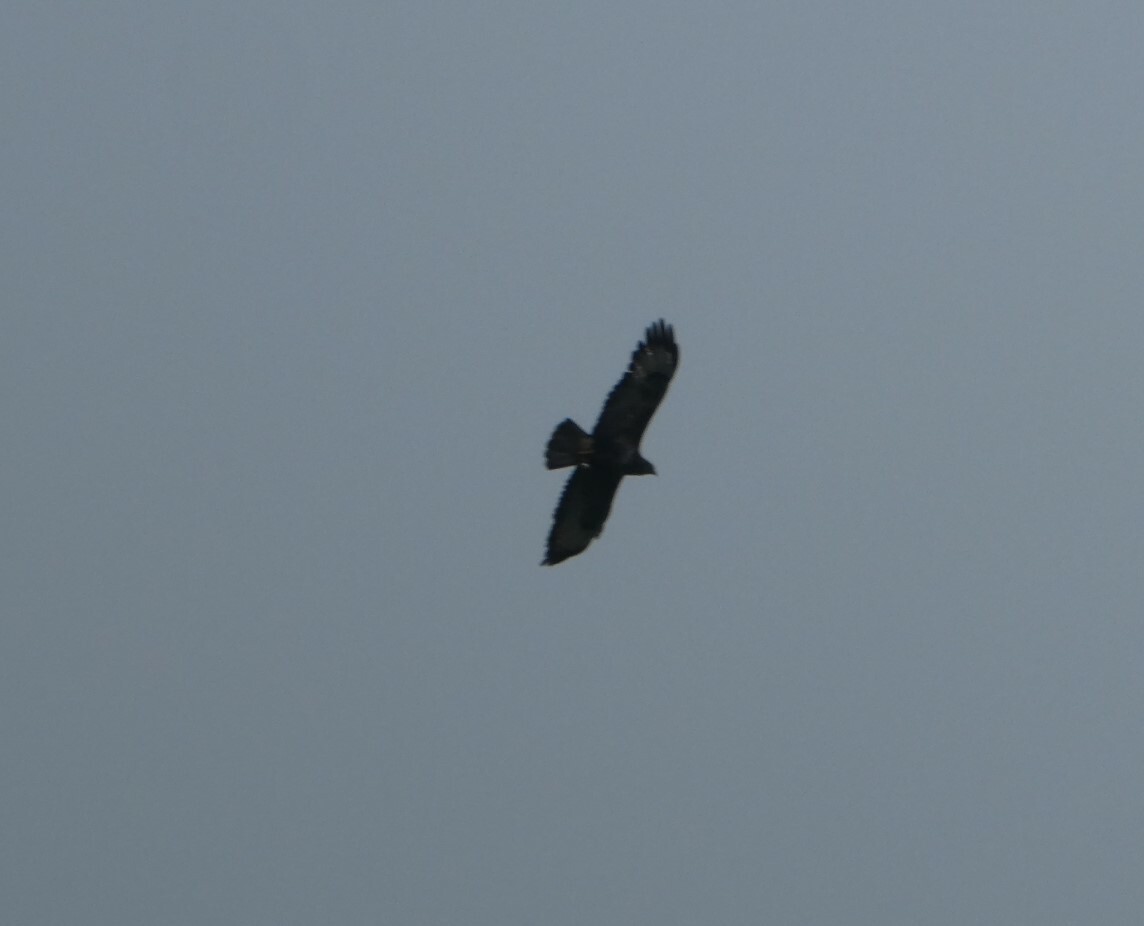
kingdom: Animalia
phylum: Chordata
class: Aves
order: Accipitriformes
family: Accipitridae
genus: Buteo
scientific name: Buteo buteo
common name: Common buzzard
